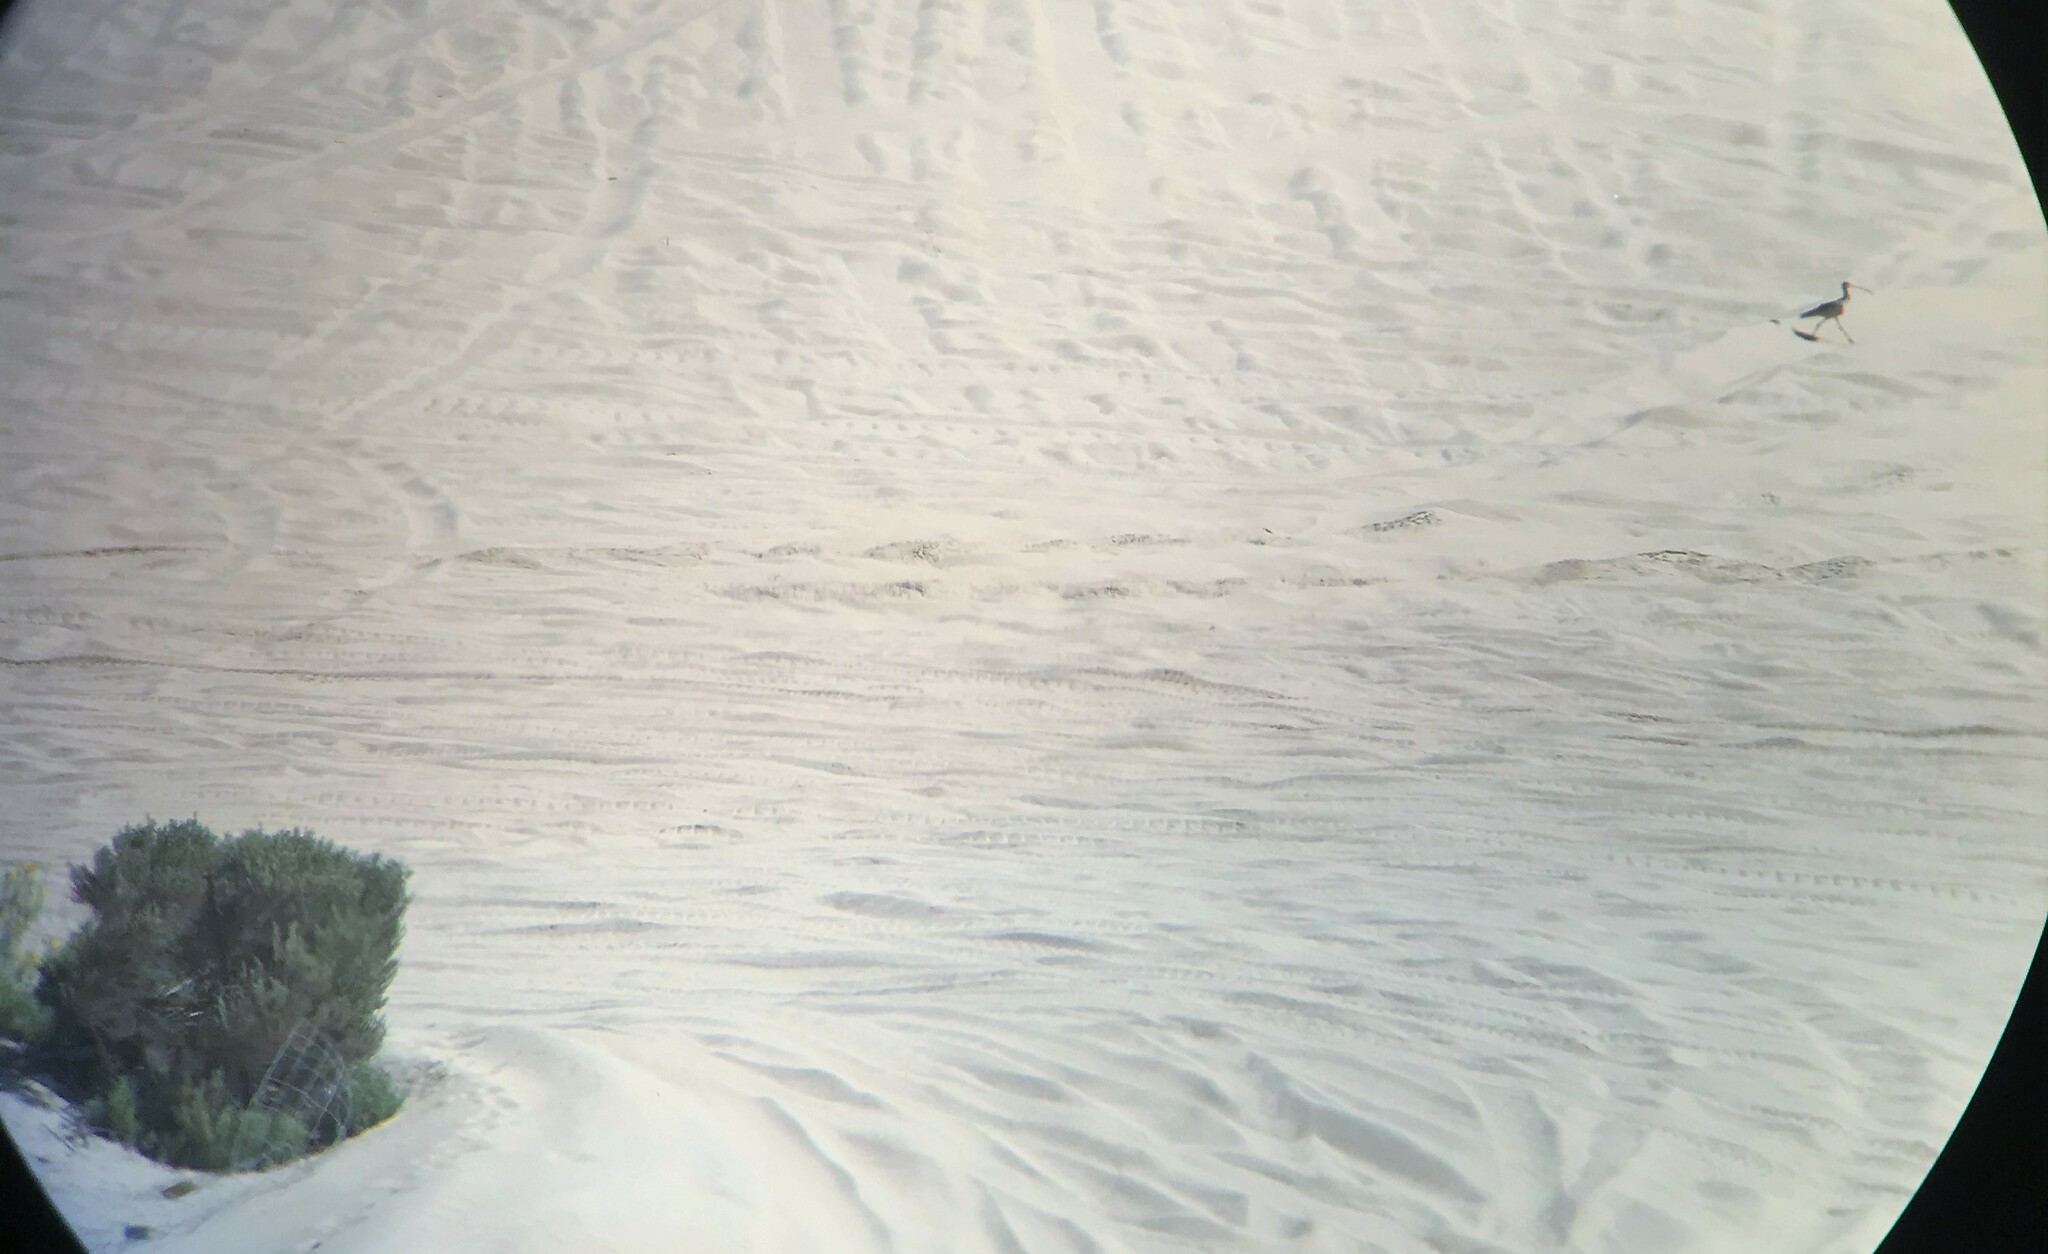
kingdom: Animalia
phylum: Chordata
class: Aves
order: Charadriiformes
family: Scolopacidae
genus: Numenius
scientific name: Numenius americanus
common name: Long-billed curlew
